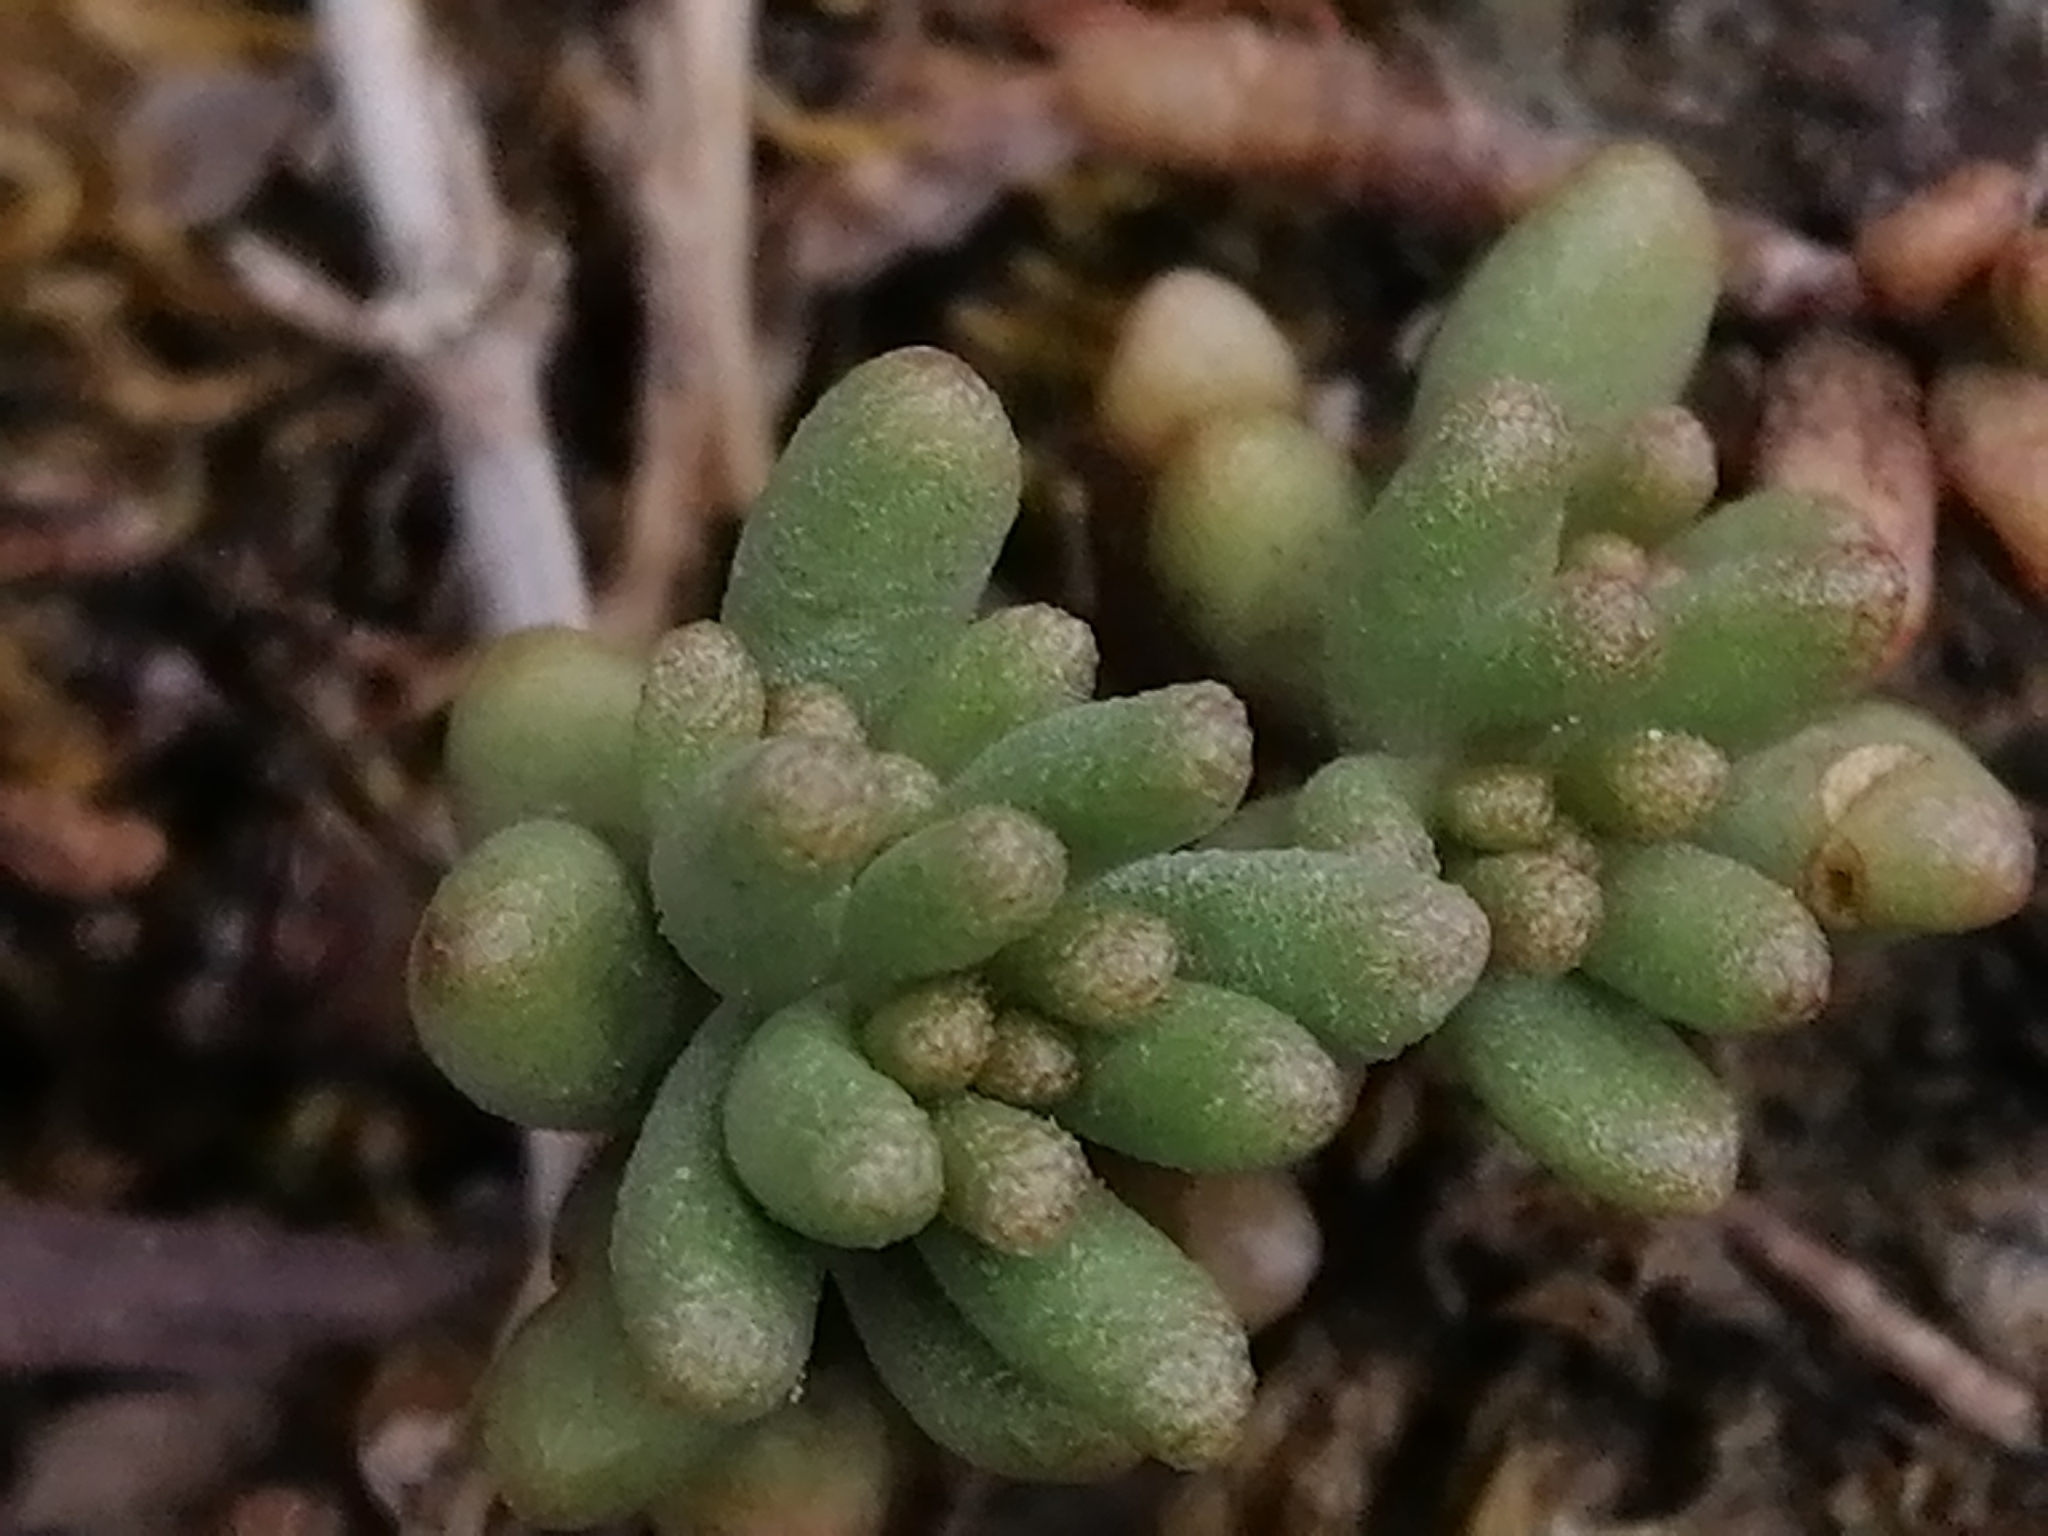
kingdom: Plantae
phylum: Tracheophyta
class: Magnoliopsida
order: Saxifragales
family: Crassulaceae
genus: Sedum
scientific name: Sedum album
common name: White stonecrop
